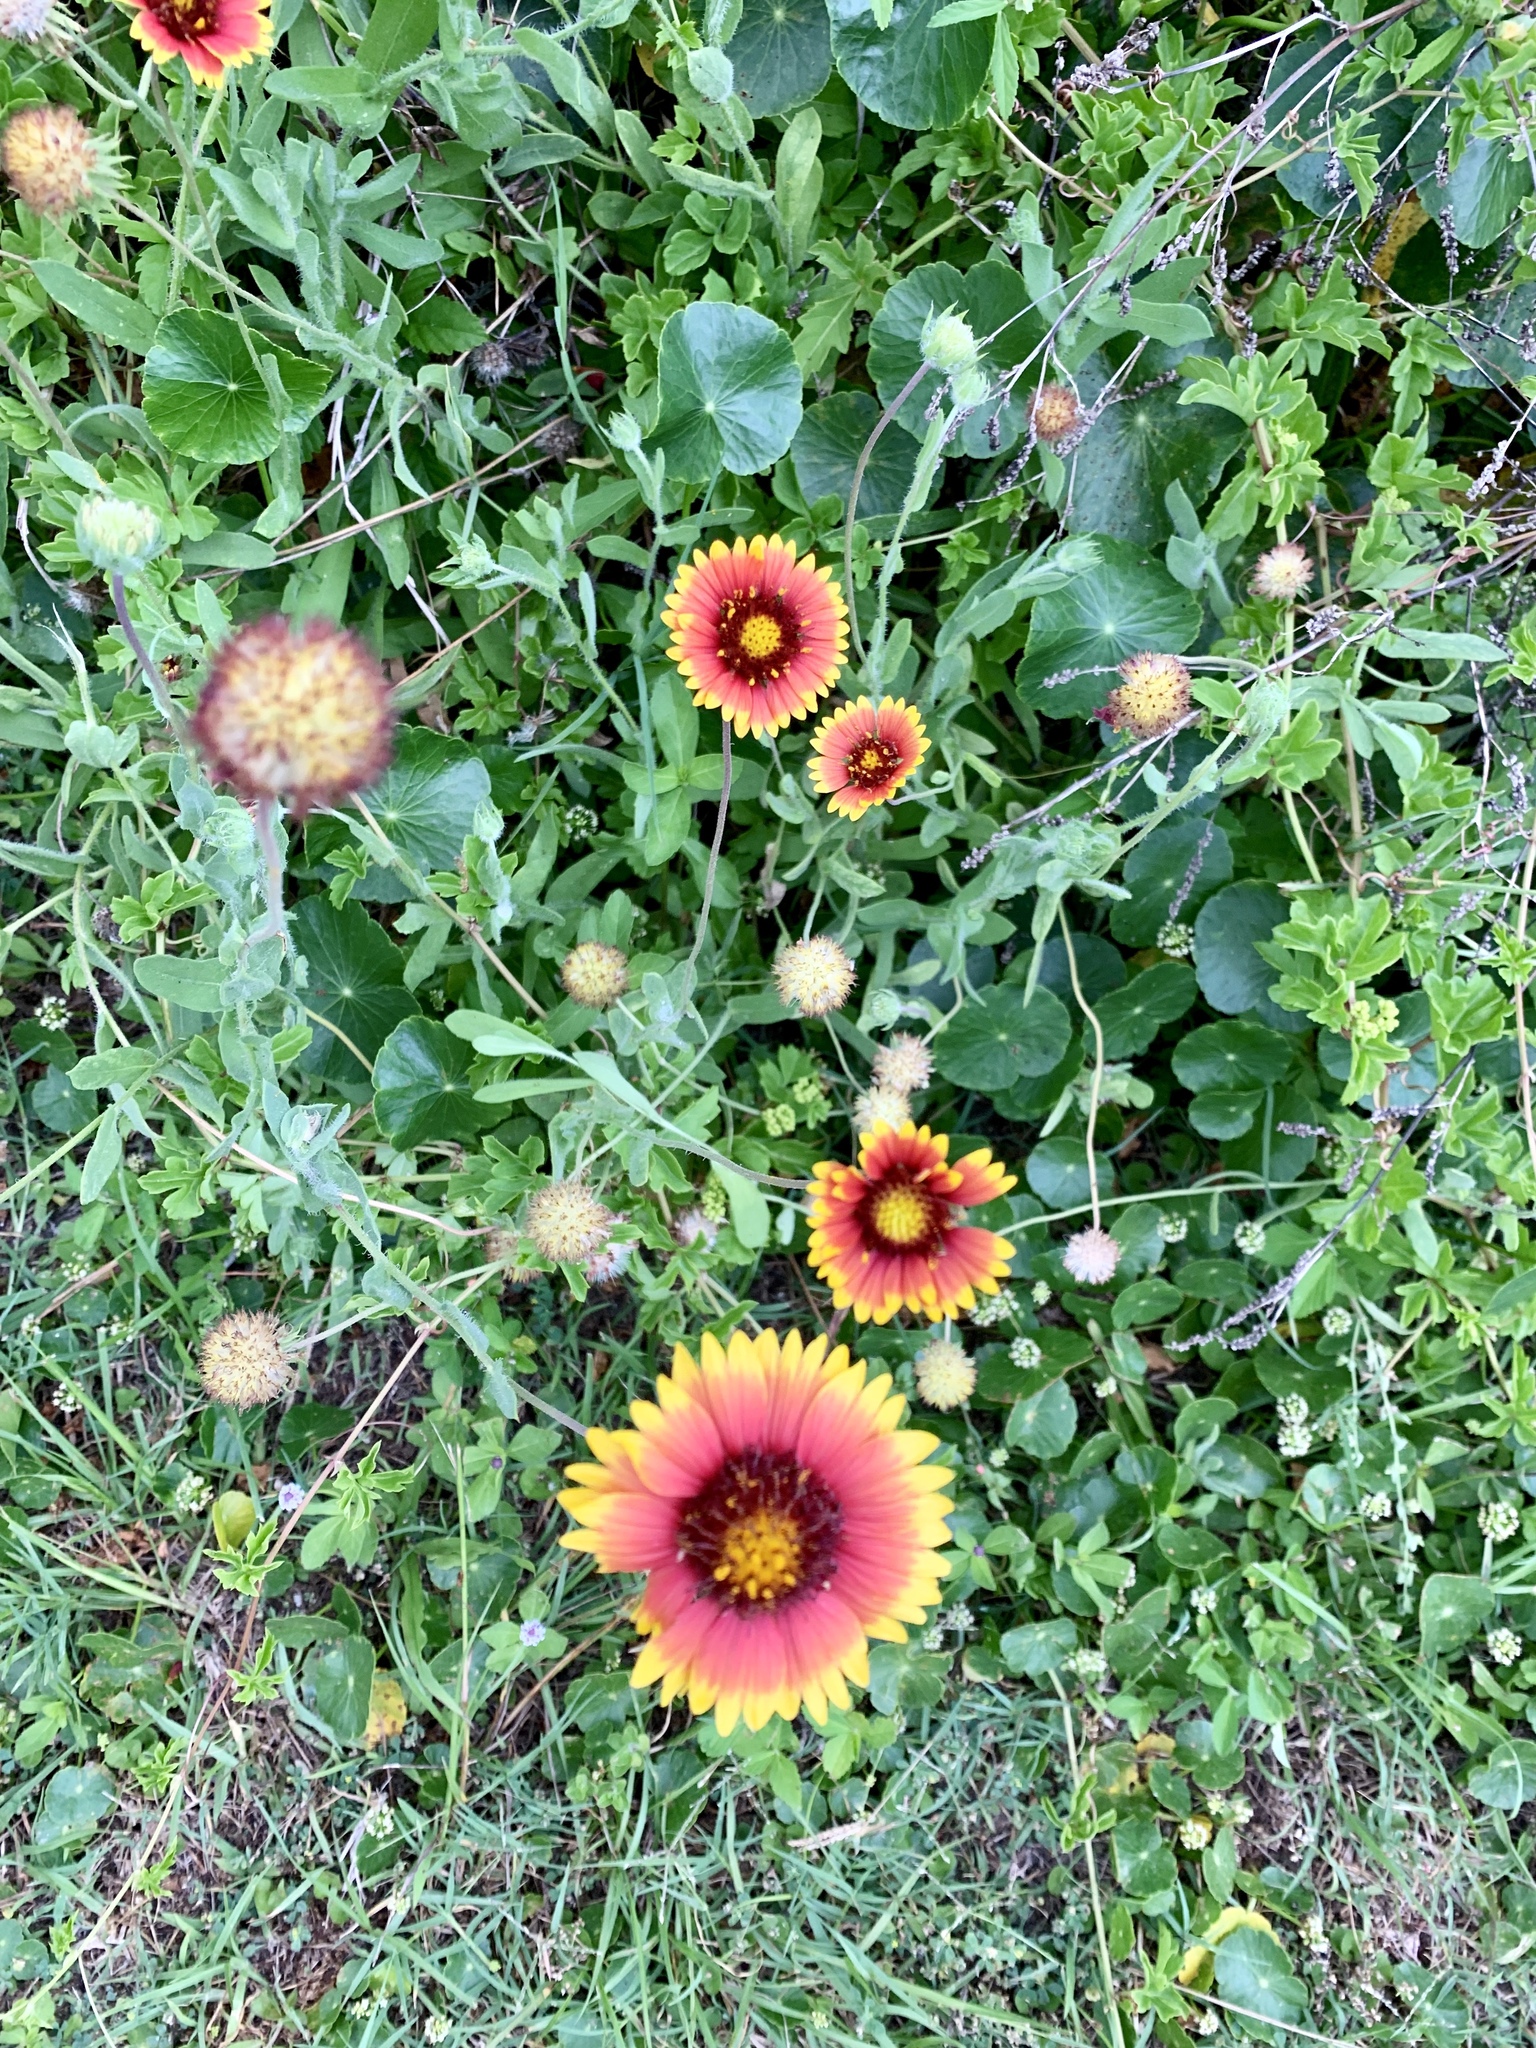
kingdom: Plantae
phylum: Tracheophyta
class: Magnoliopsida
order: Asterales
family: Asteraceae
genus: Gaillardia
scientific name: Gaillardia pulchella
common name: Firewheel
